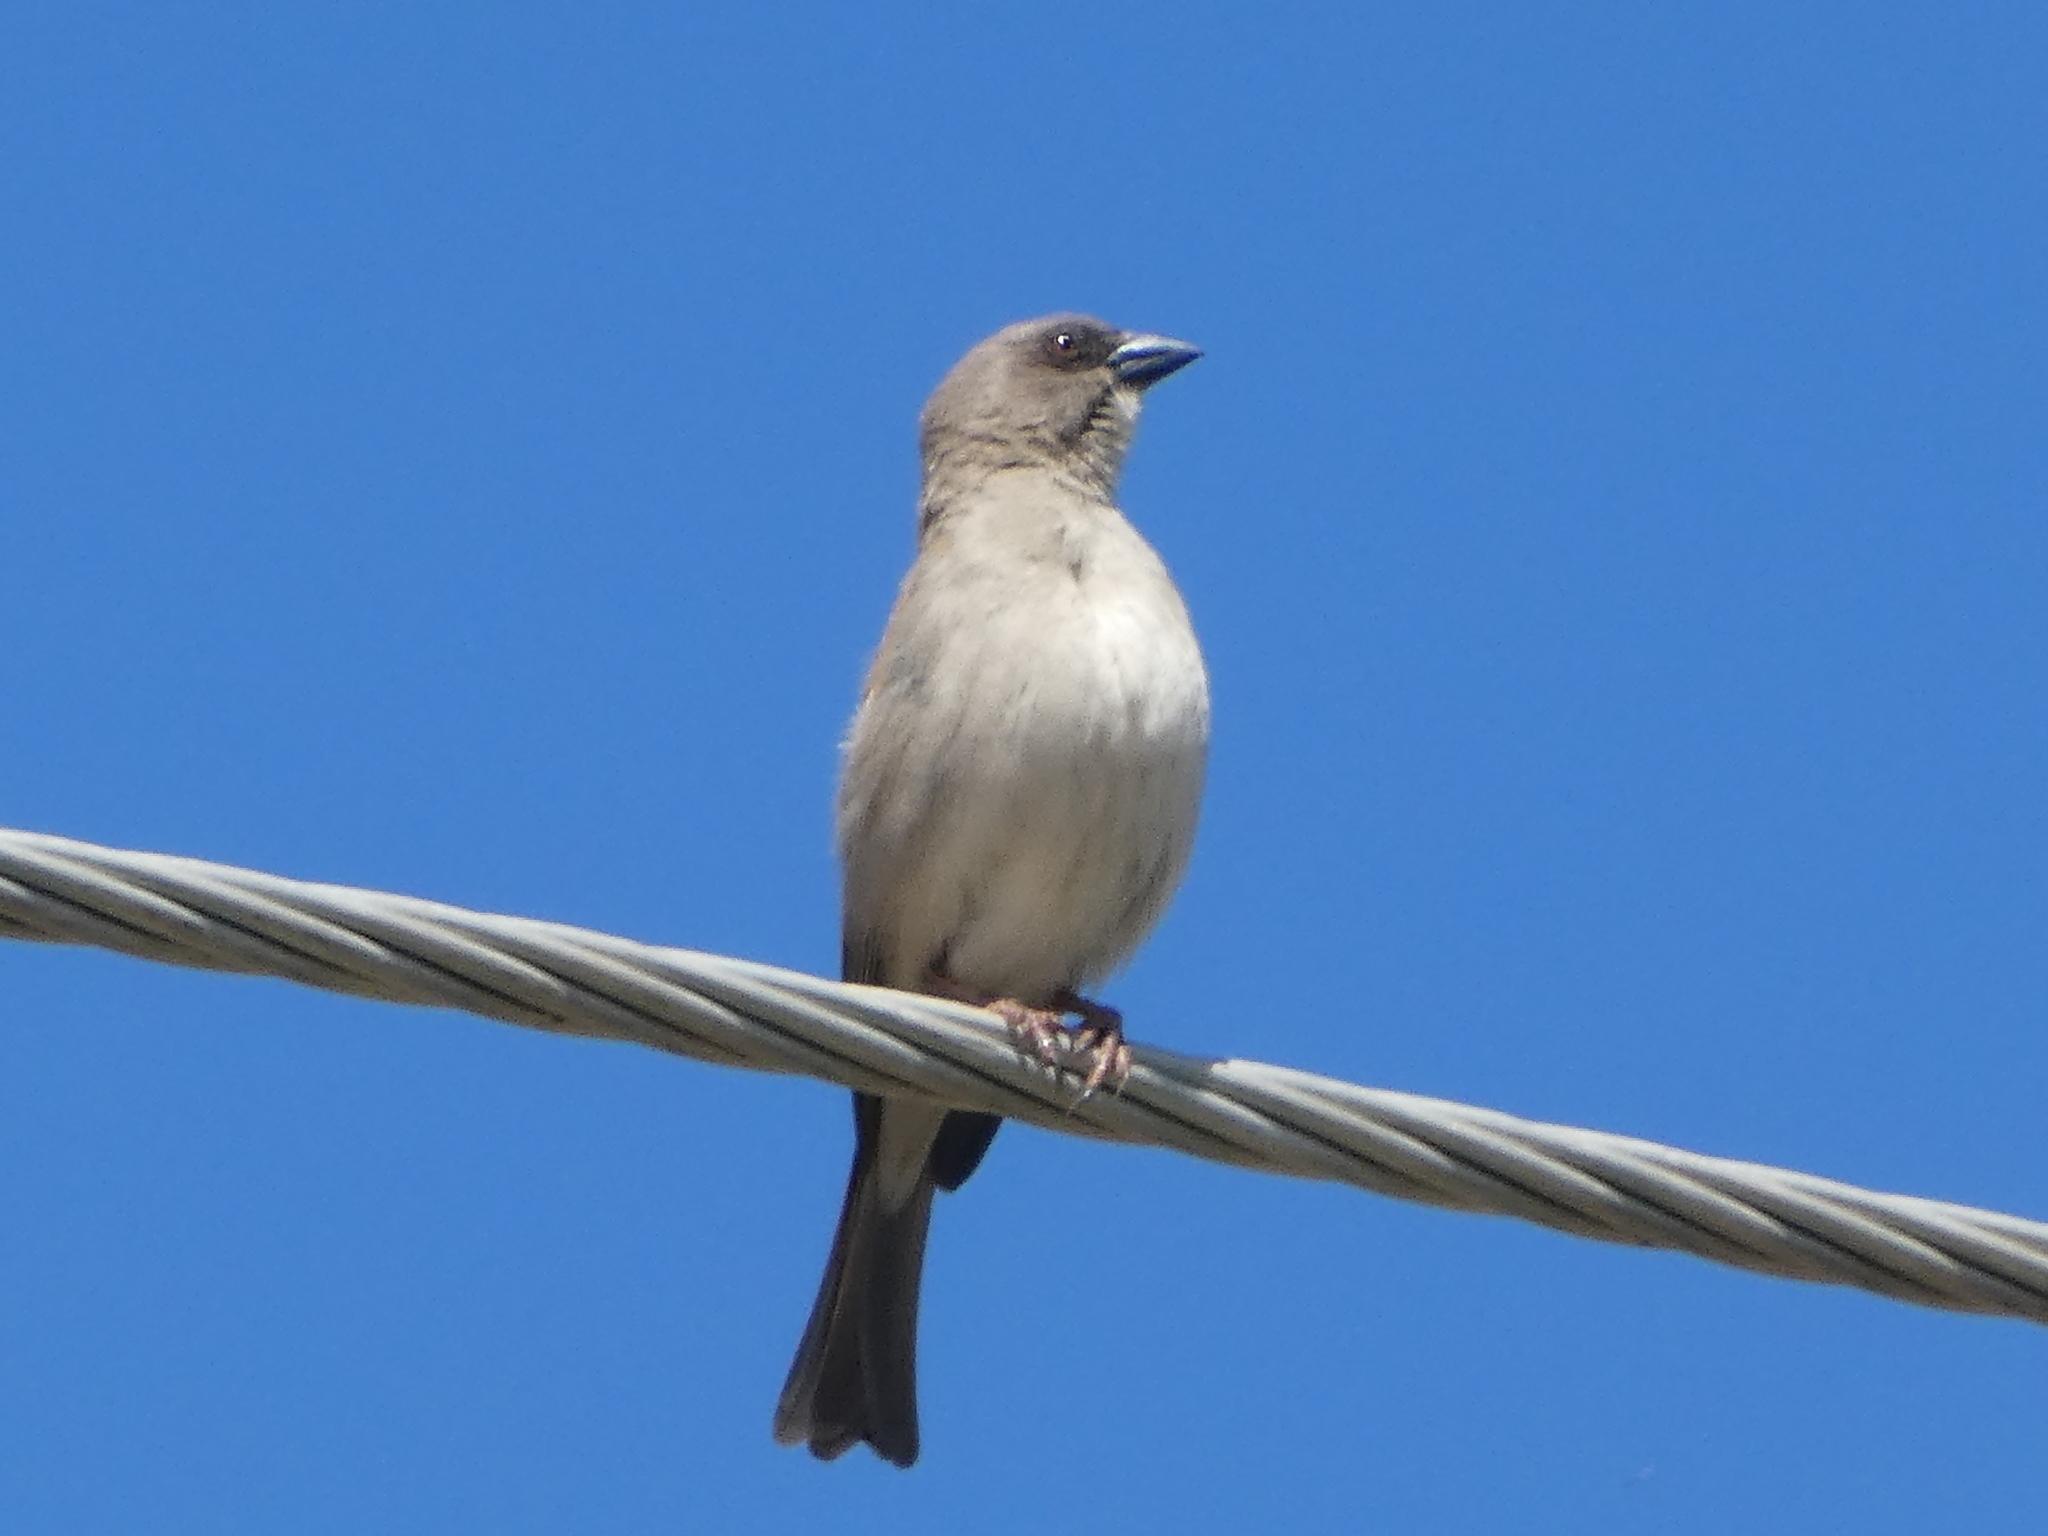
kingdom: Animalia
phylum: Chordata
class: Aves
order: Passeriformes
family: Passeridae
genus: Passer
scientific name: Passer griseus
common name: Northern grey-headed sparrow
